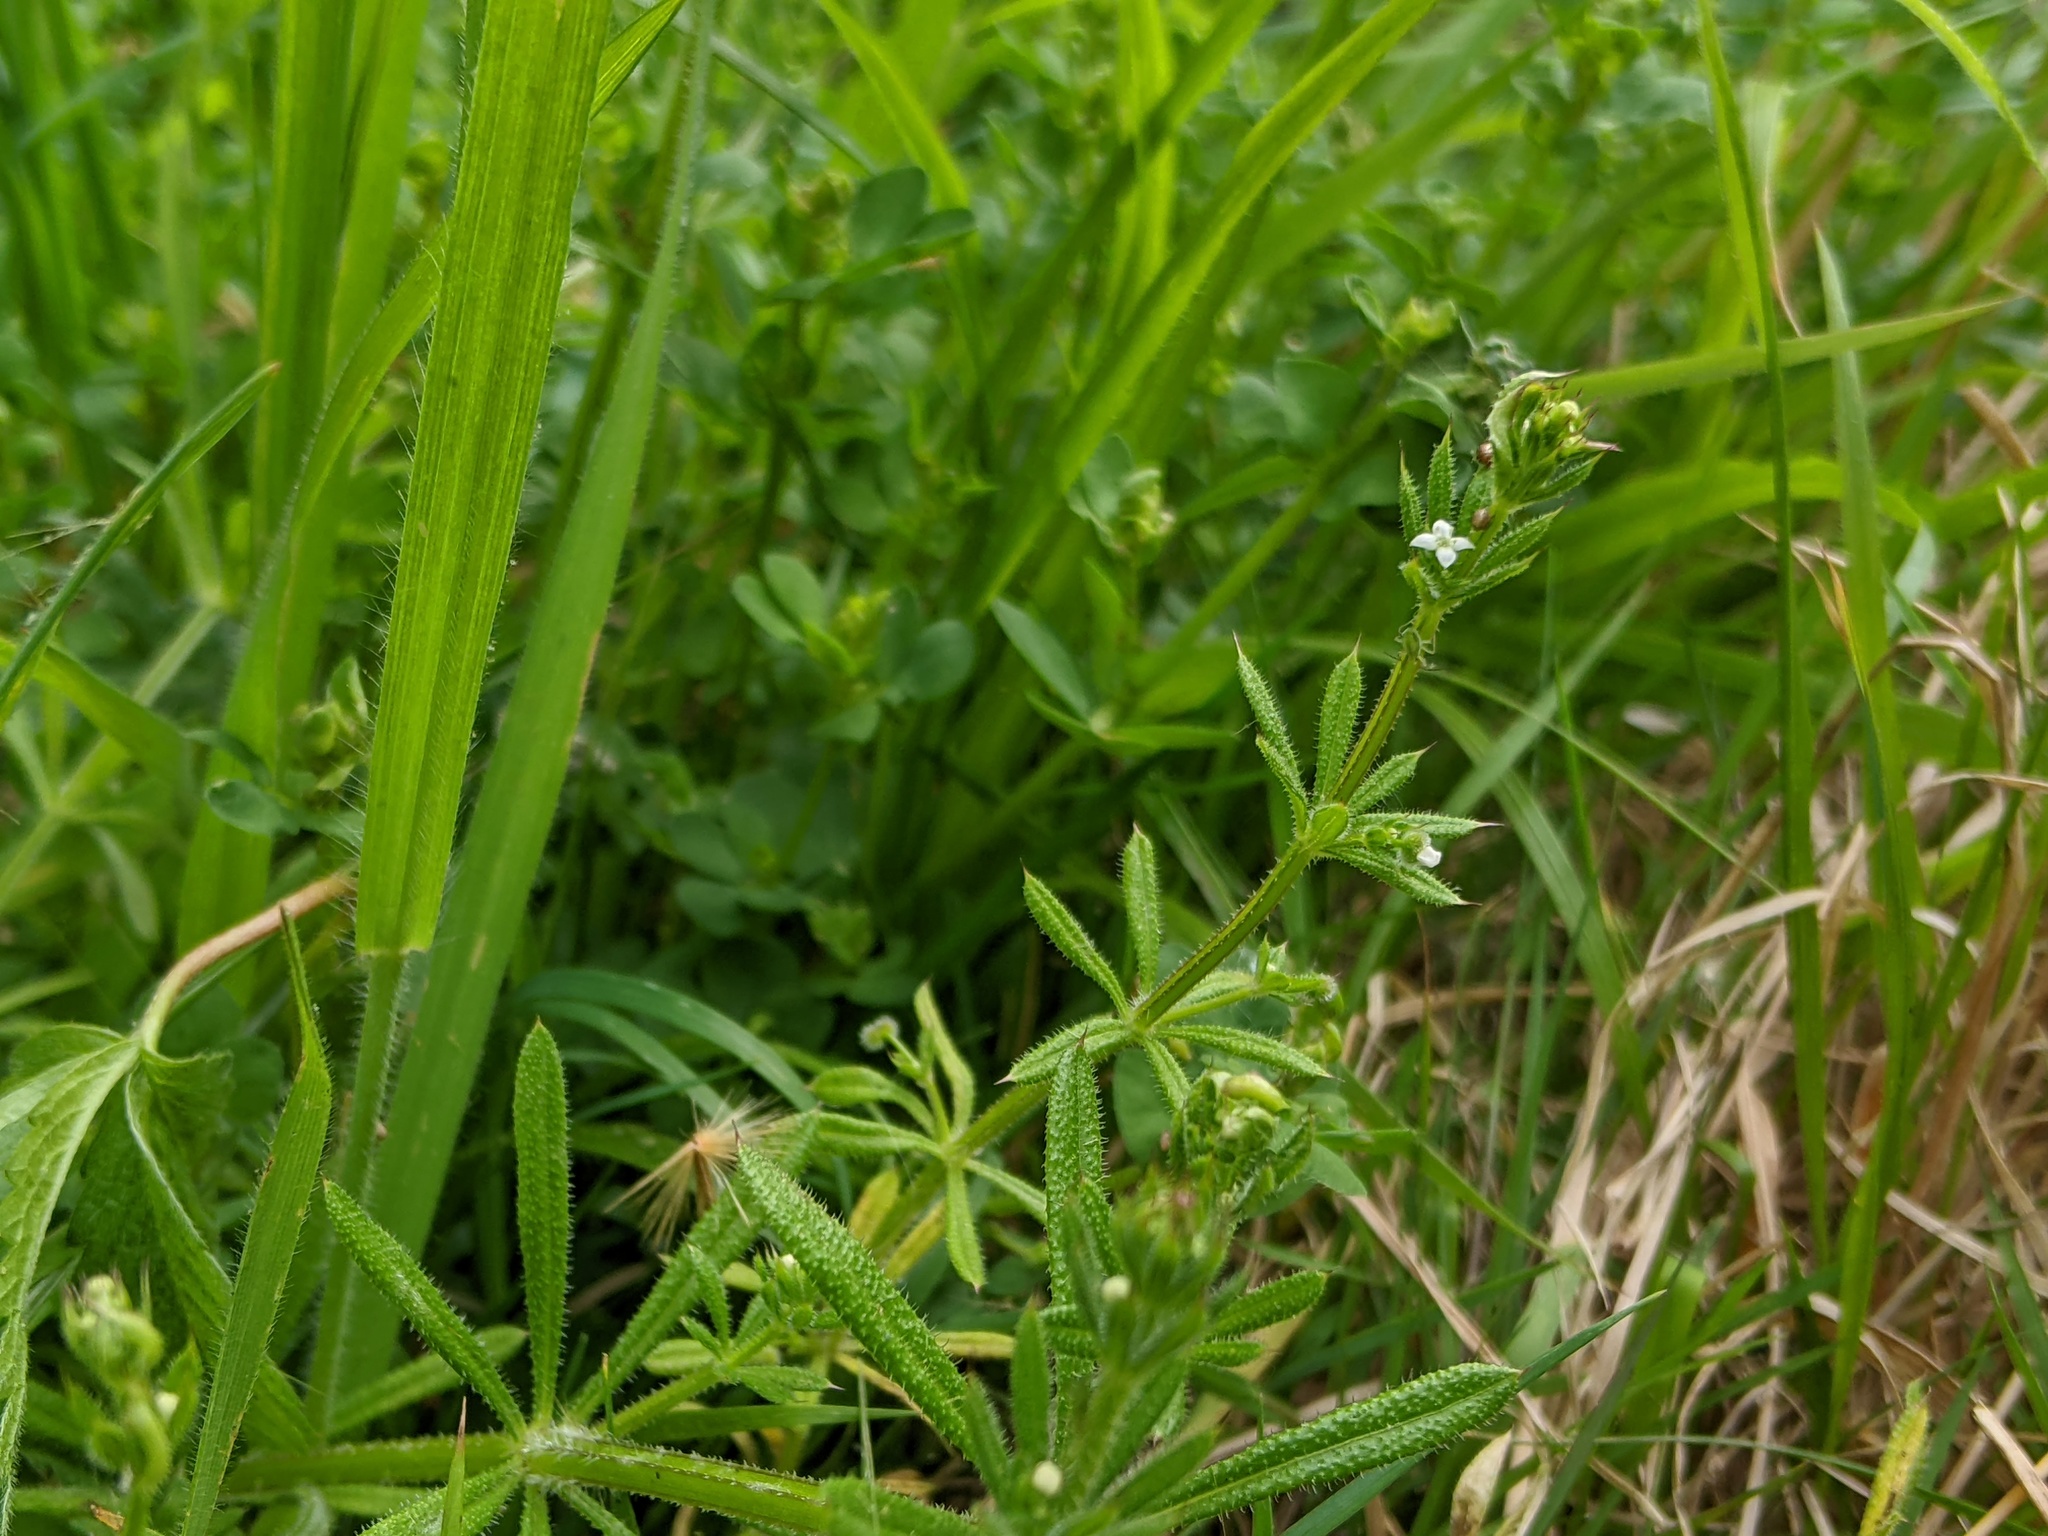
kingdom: Plantae
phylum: Tracheophyta
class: Magnoliopsida
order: Gentianales
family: Rubiaceae
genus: Galium
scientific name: Galium aparine
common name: Cleavers
